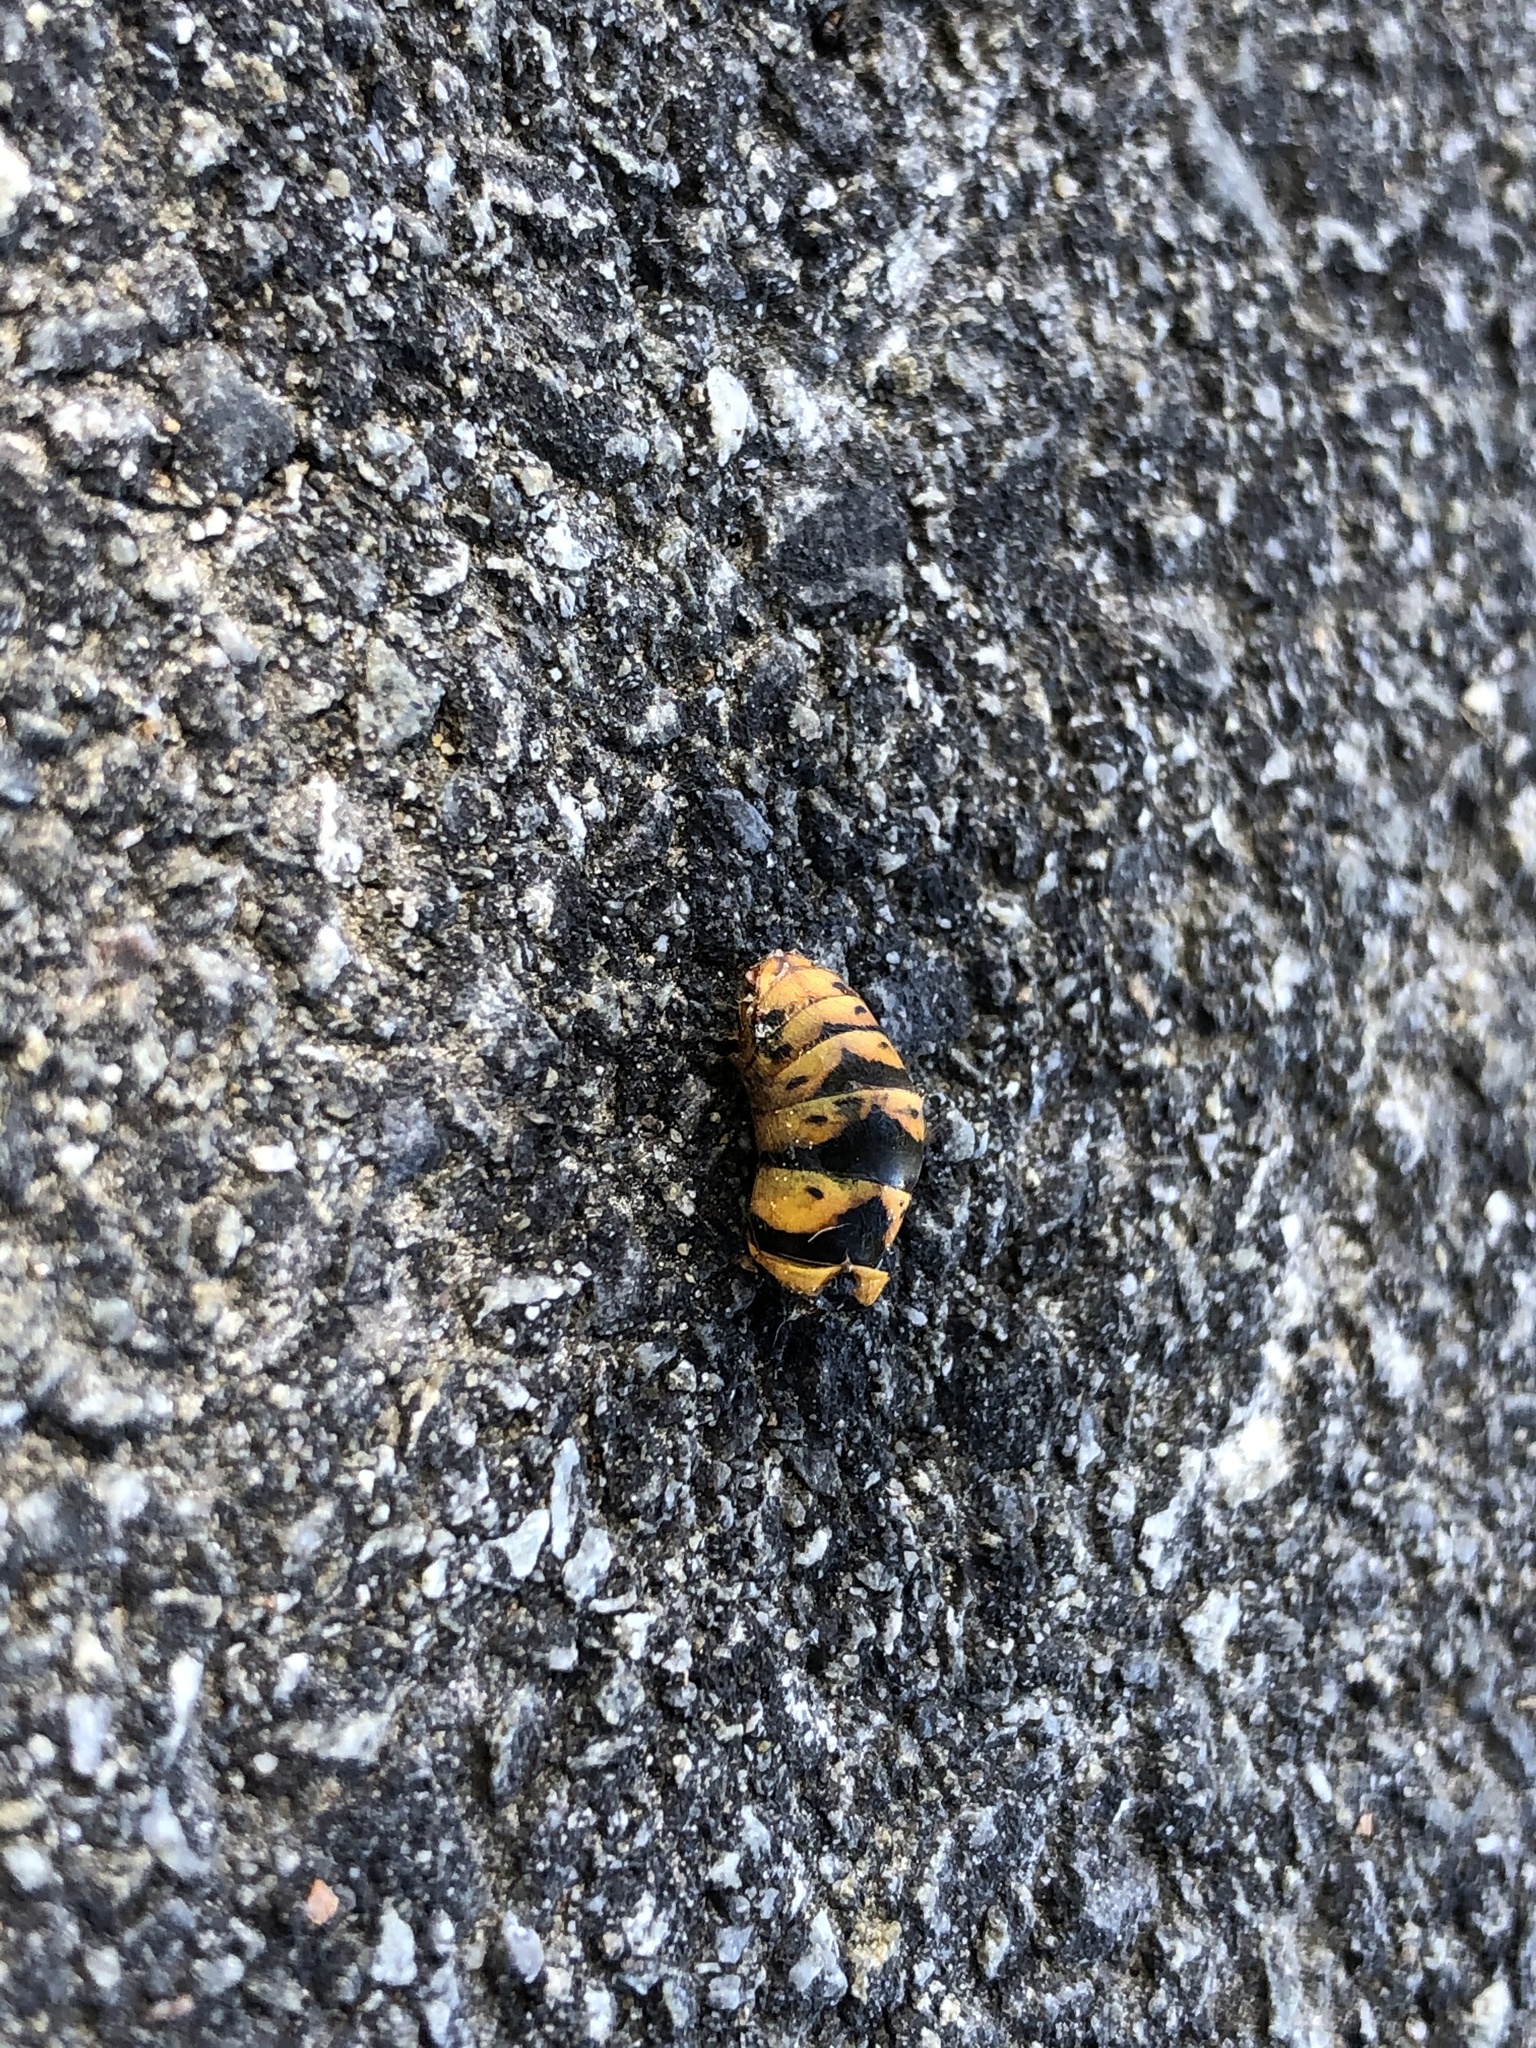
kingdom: Animalia
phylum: Arthropoda
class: Insecta
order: Hymenoptera
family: Vespidae
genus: Vespula
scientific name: Vespula
